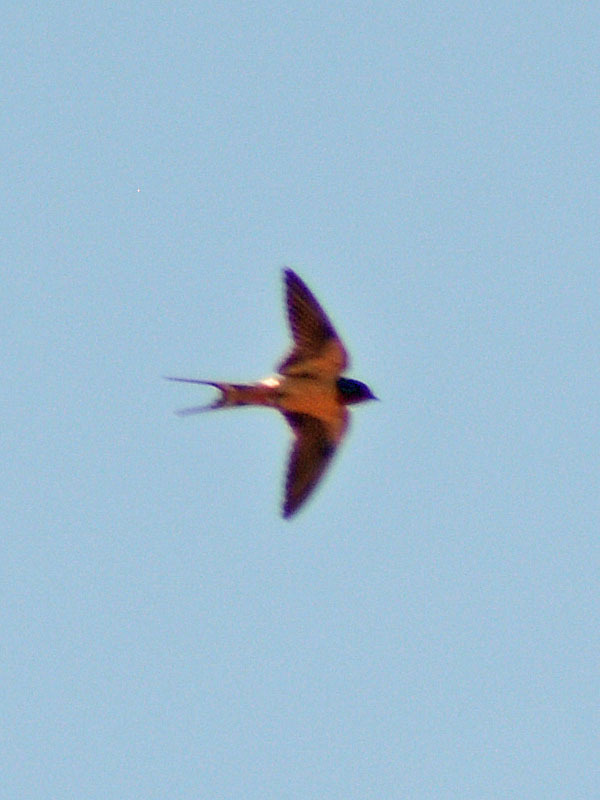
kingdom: Animalia
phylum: Chordata
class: Aves
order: Passeriformes
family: Hirundinidae
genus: Hirundo
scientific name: Hirundo rustica
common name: Barn swallow
